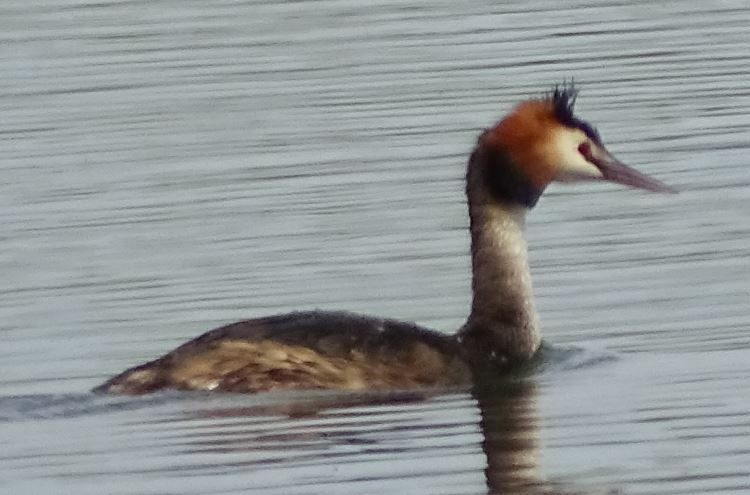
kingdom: Animalia
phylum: Chordata
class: Aves
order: Podicipediformes
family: Podicipedidae
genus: Podiceps
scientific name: Podiceps cristatus
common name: Great crested grebe
